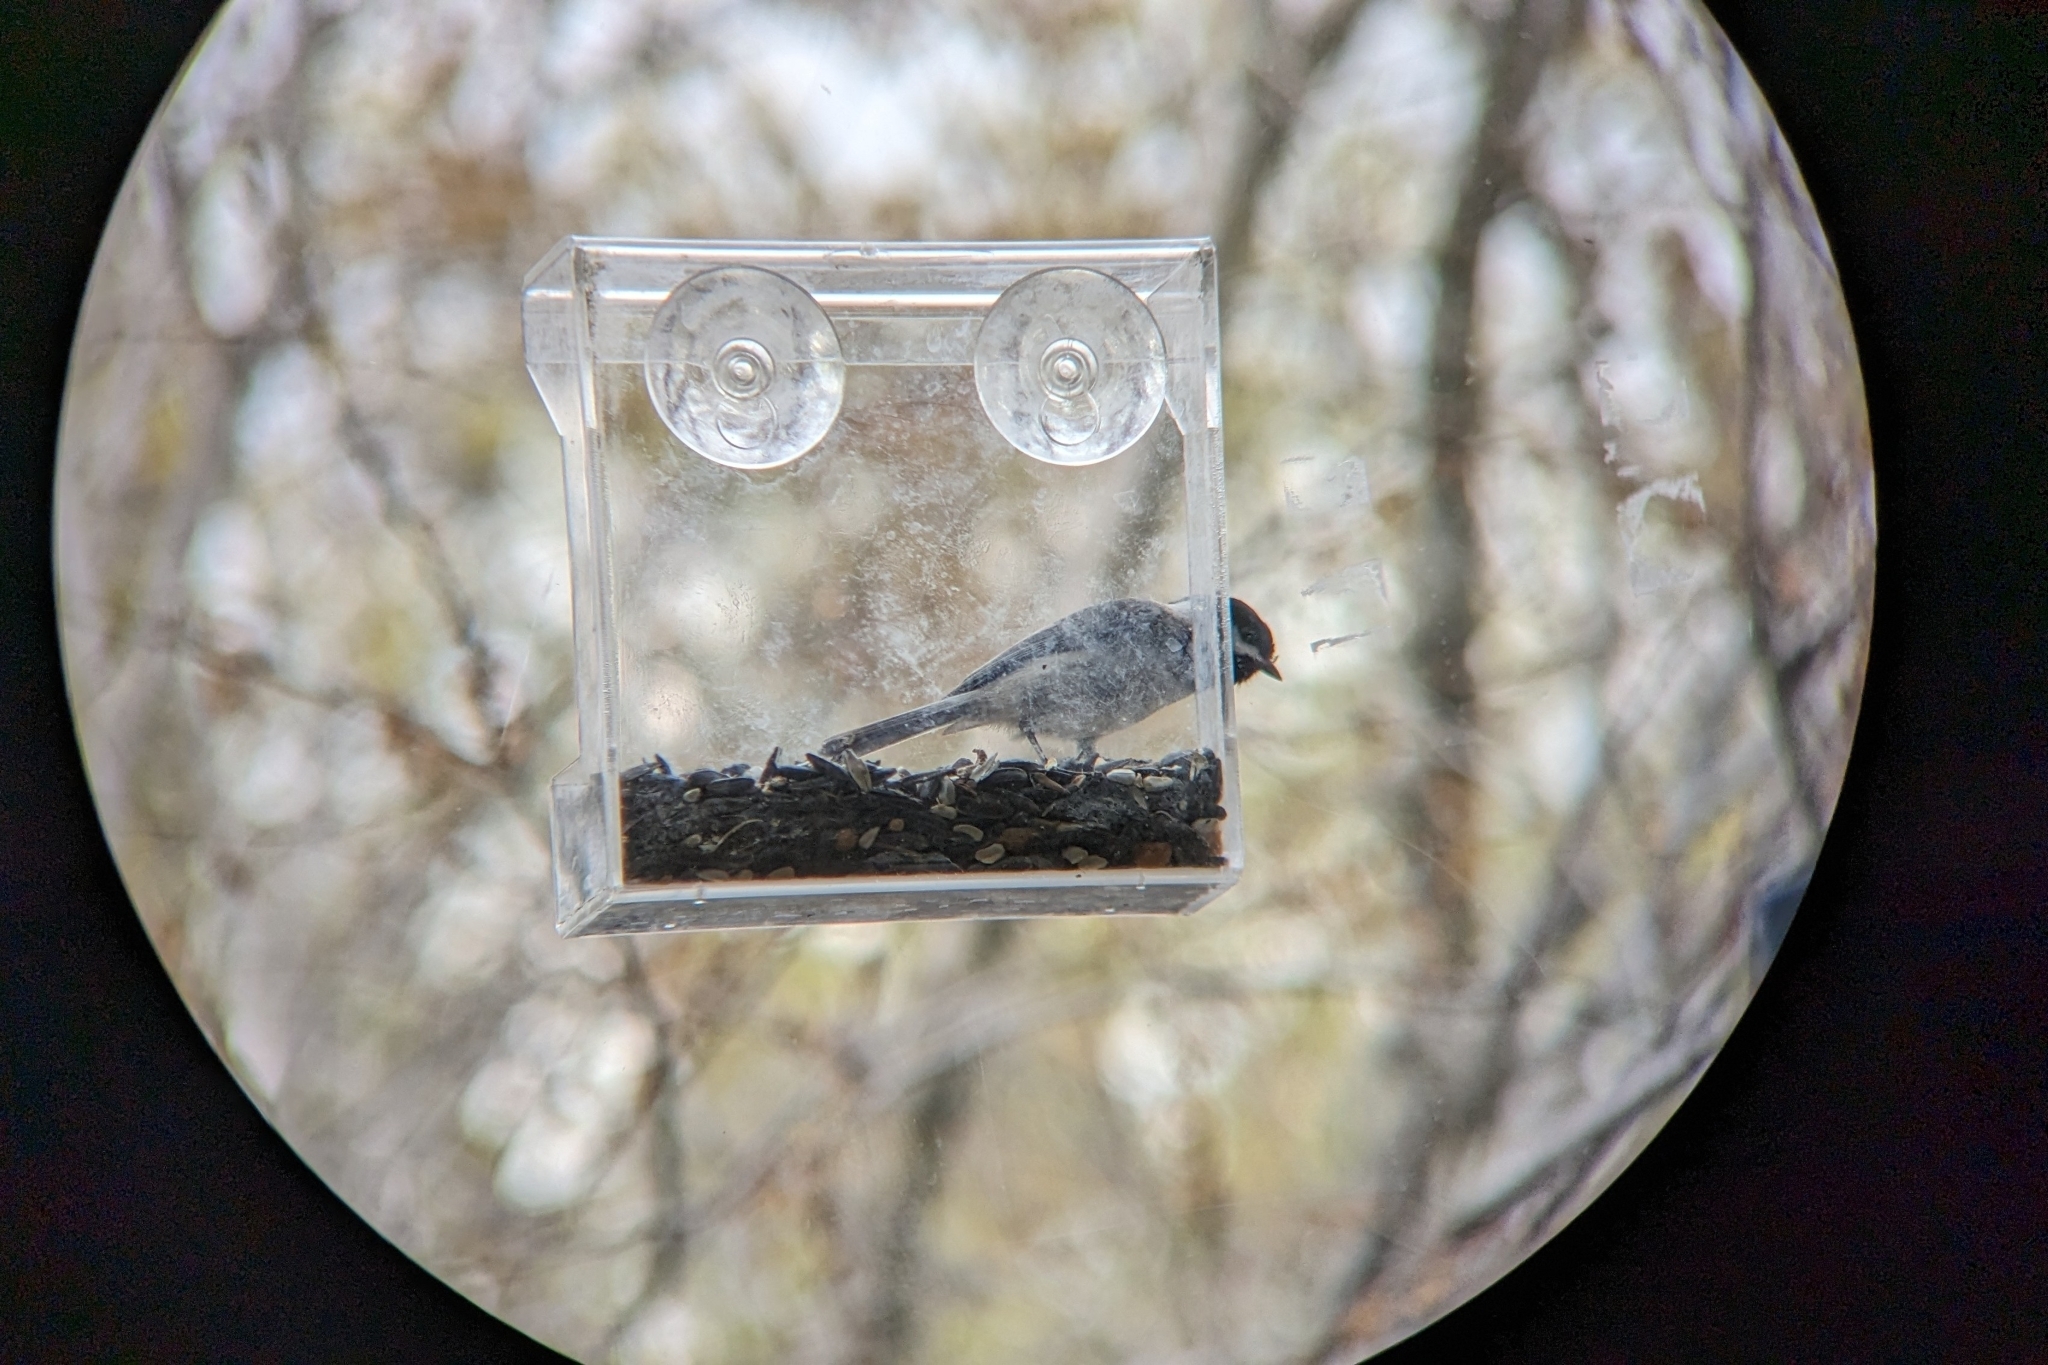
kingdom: Animalia
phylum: Chordata
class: Aves
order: Passeriformes
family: Paridae
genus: Poecile
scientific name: Poecile carolinensis
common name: Carolina chickadee
